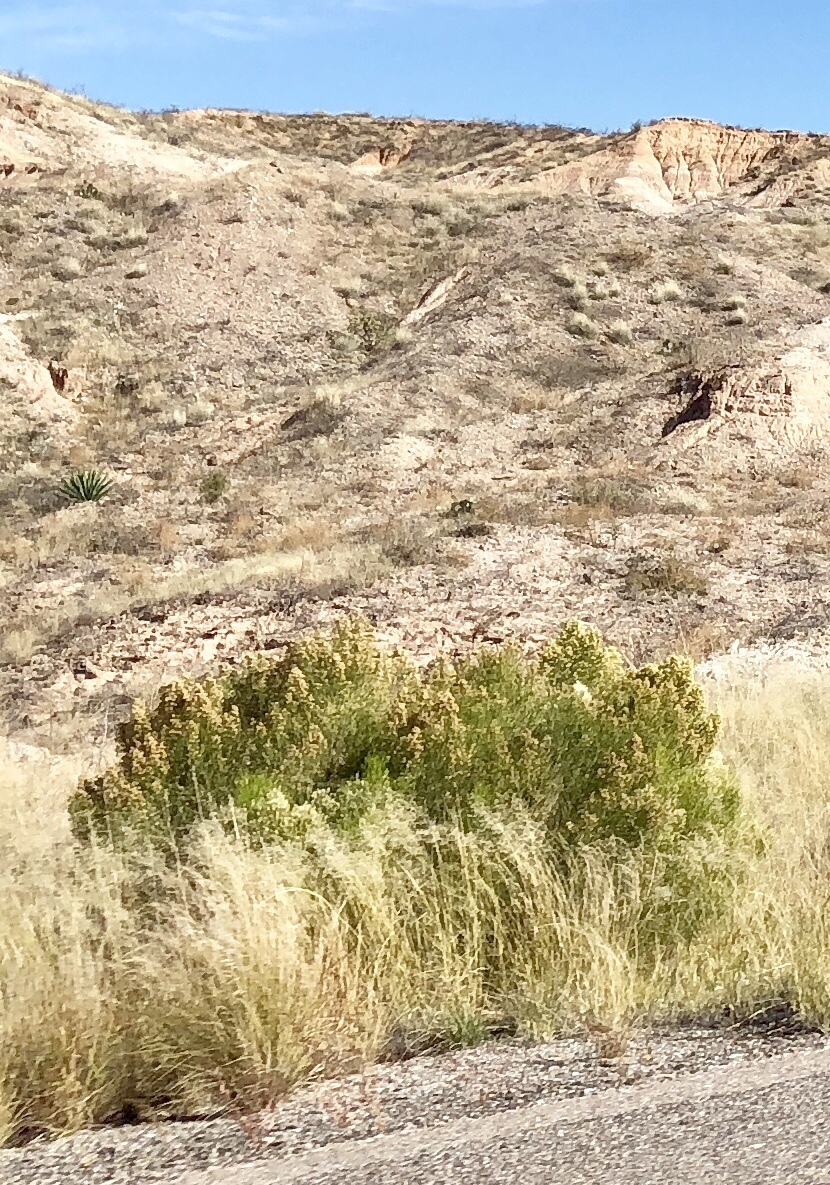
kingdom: Plantae
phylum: Tracheophyta
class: Magnoliopsida
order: Asterales
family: Asteraceae
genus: Baccharis
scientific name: Baccharis sarothroides
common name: Desert-broom
